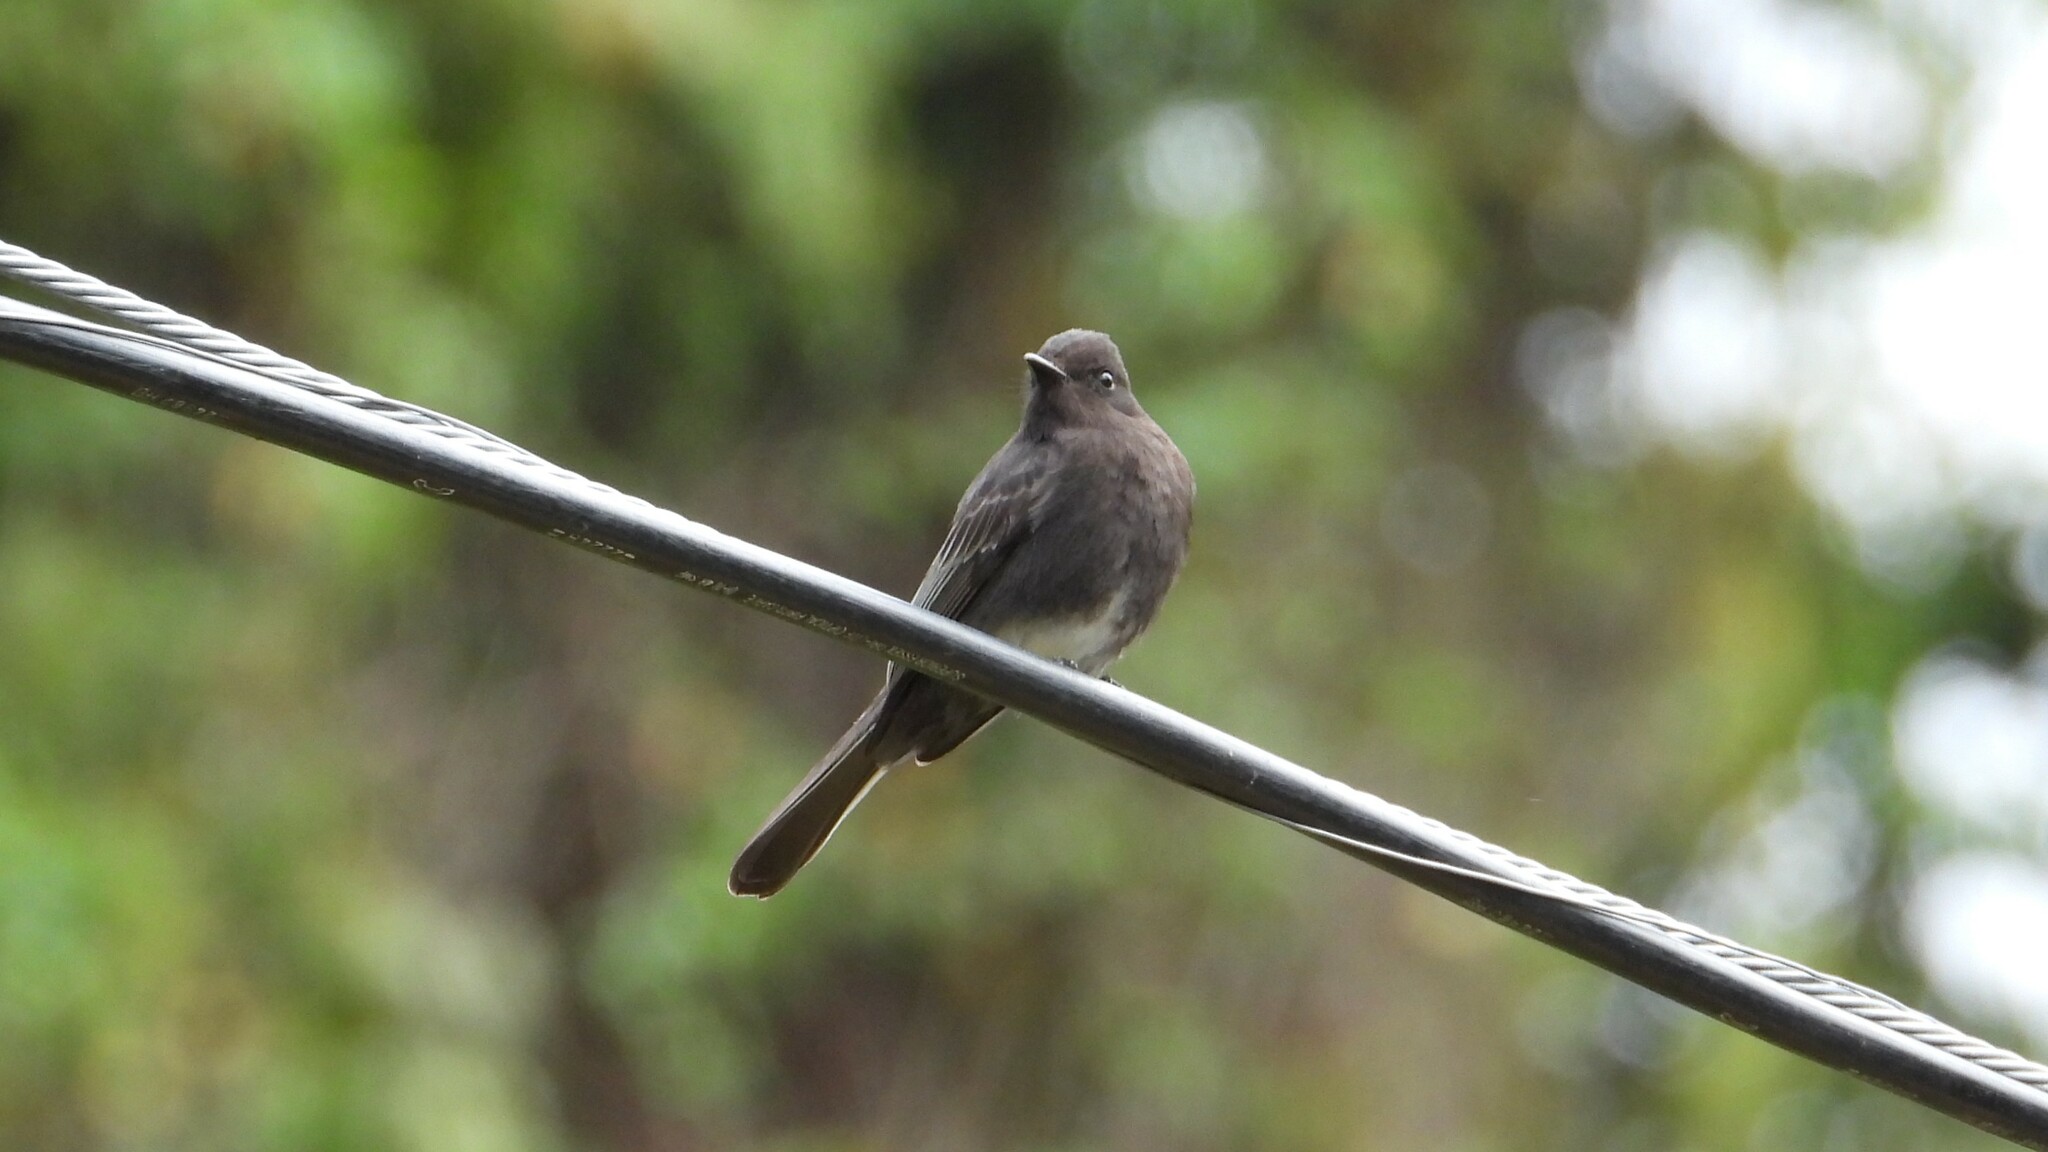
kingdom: Animalia
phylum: Chordata
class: Aves
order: Passeriformes
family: Tyrannidae
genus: Sayornis
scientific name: Sayornis nigricans
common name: Black phoebe
